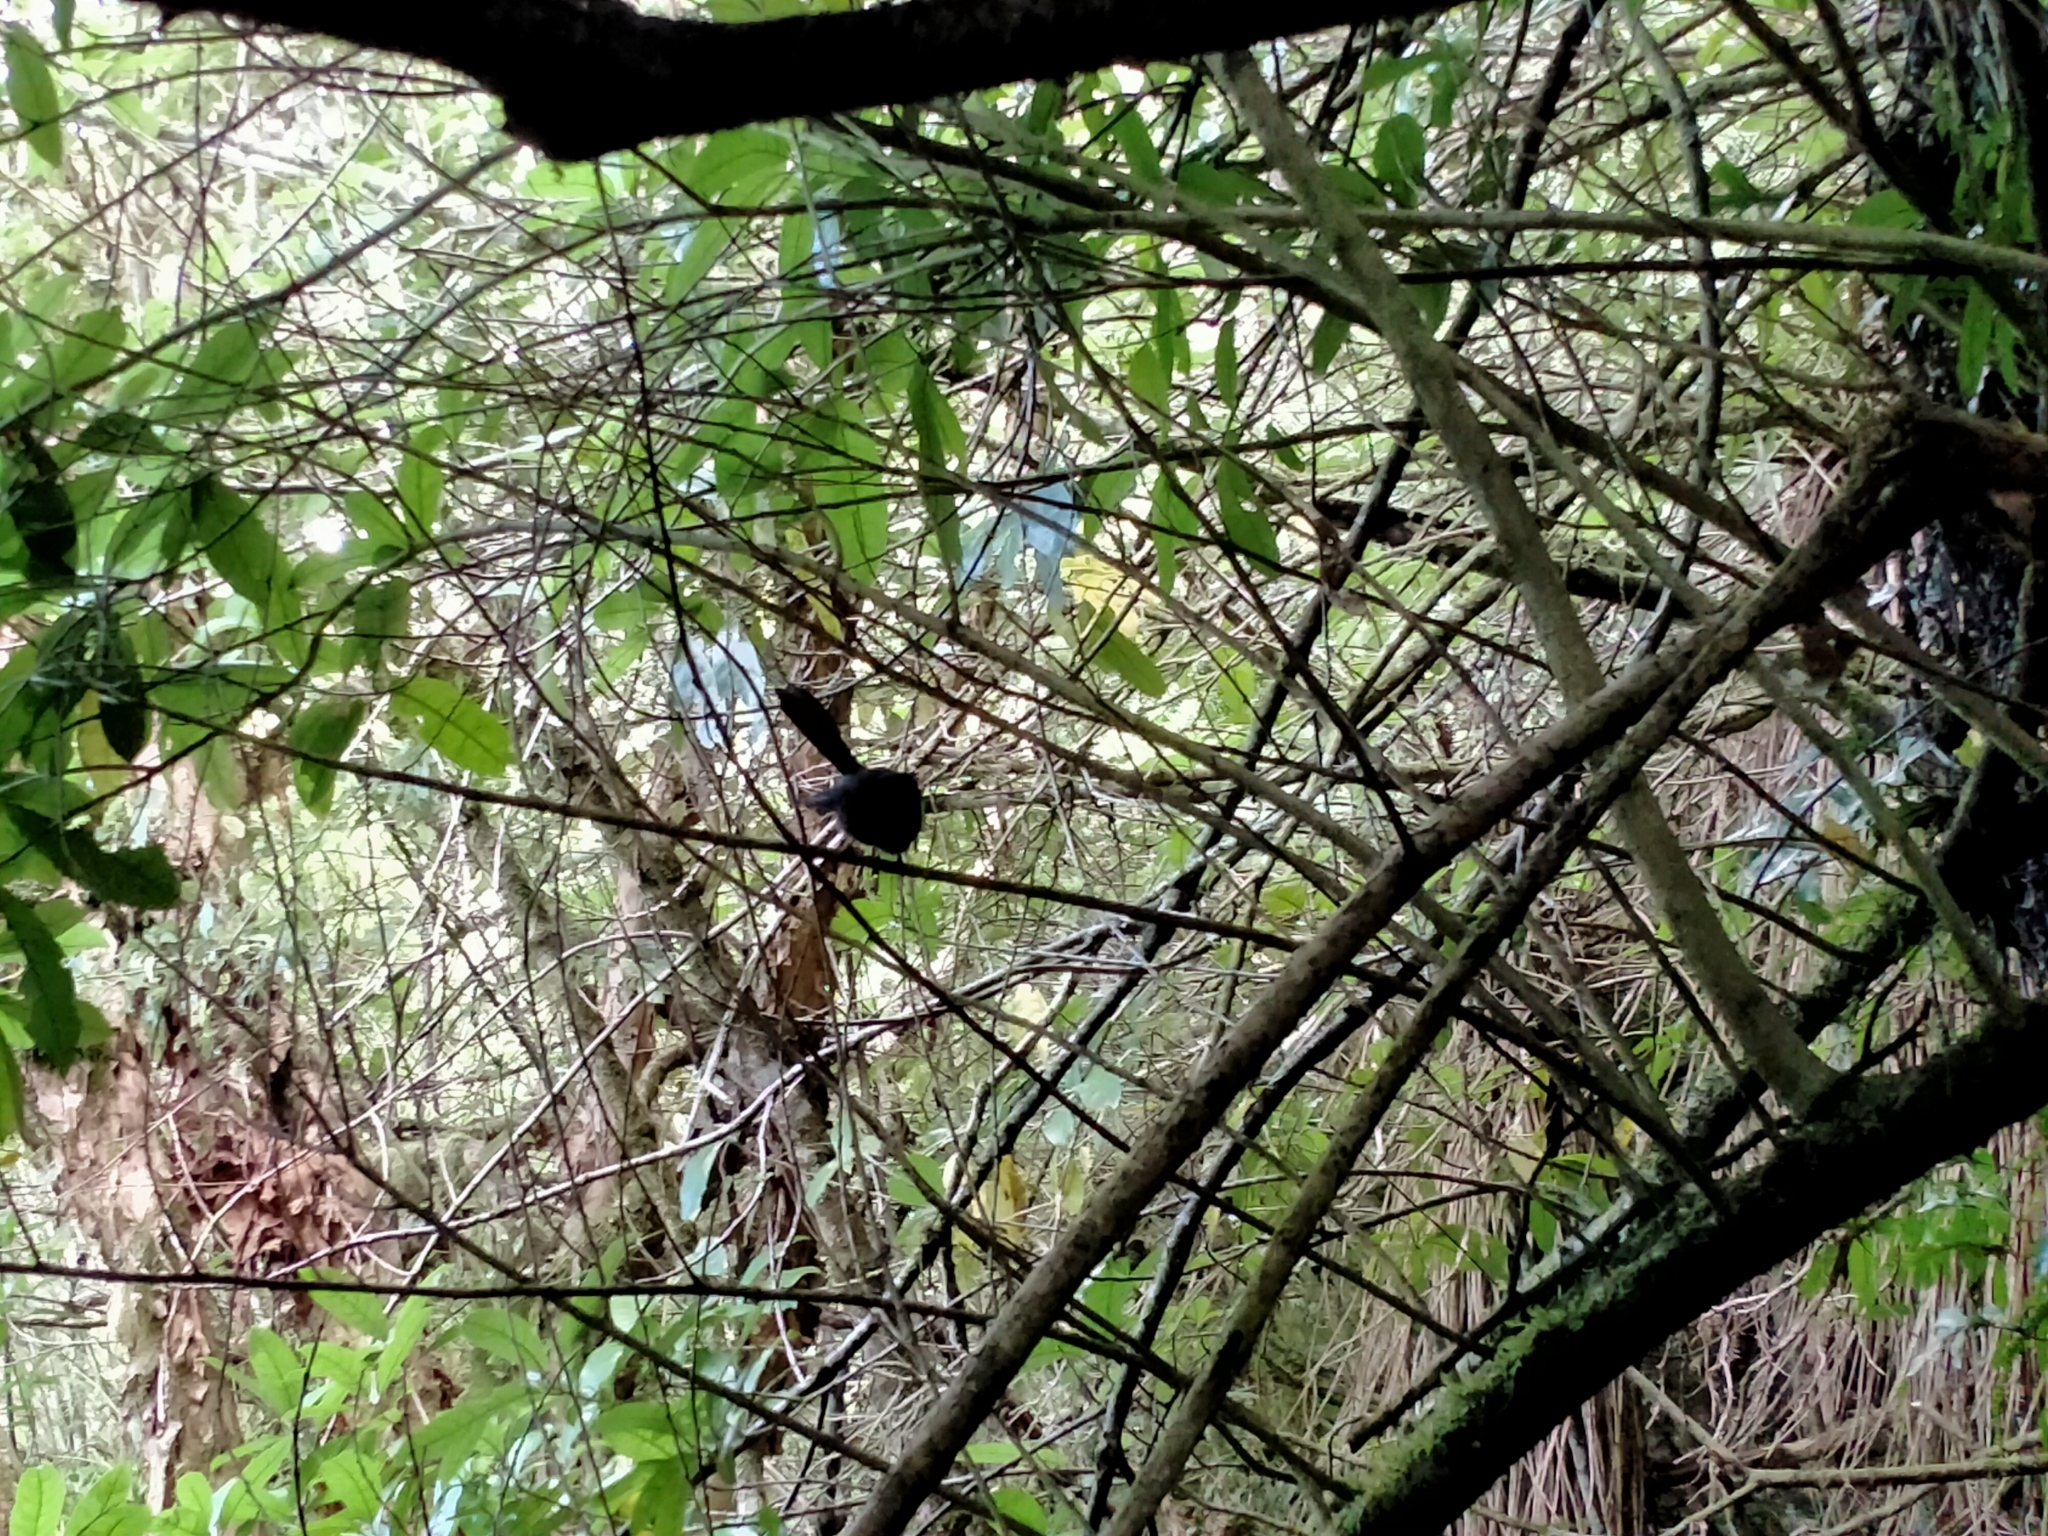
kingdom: Animalia
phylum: Chordata
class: Aves
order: Passeriformes
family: Rhipiduridae
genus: Rhipidura
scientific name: Rhipidura fuliginosa
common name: New zealand fantail
